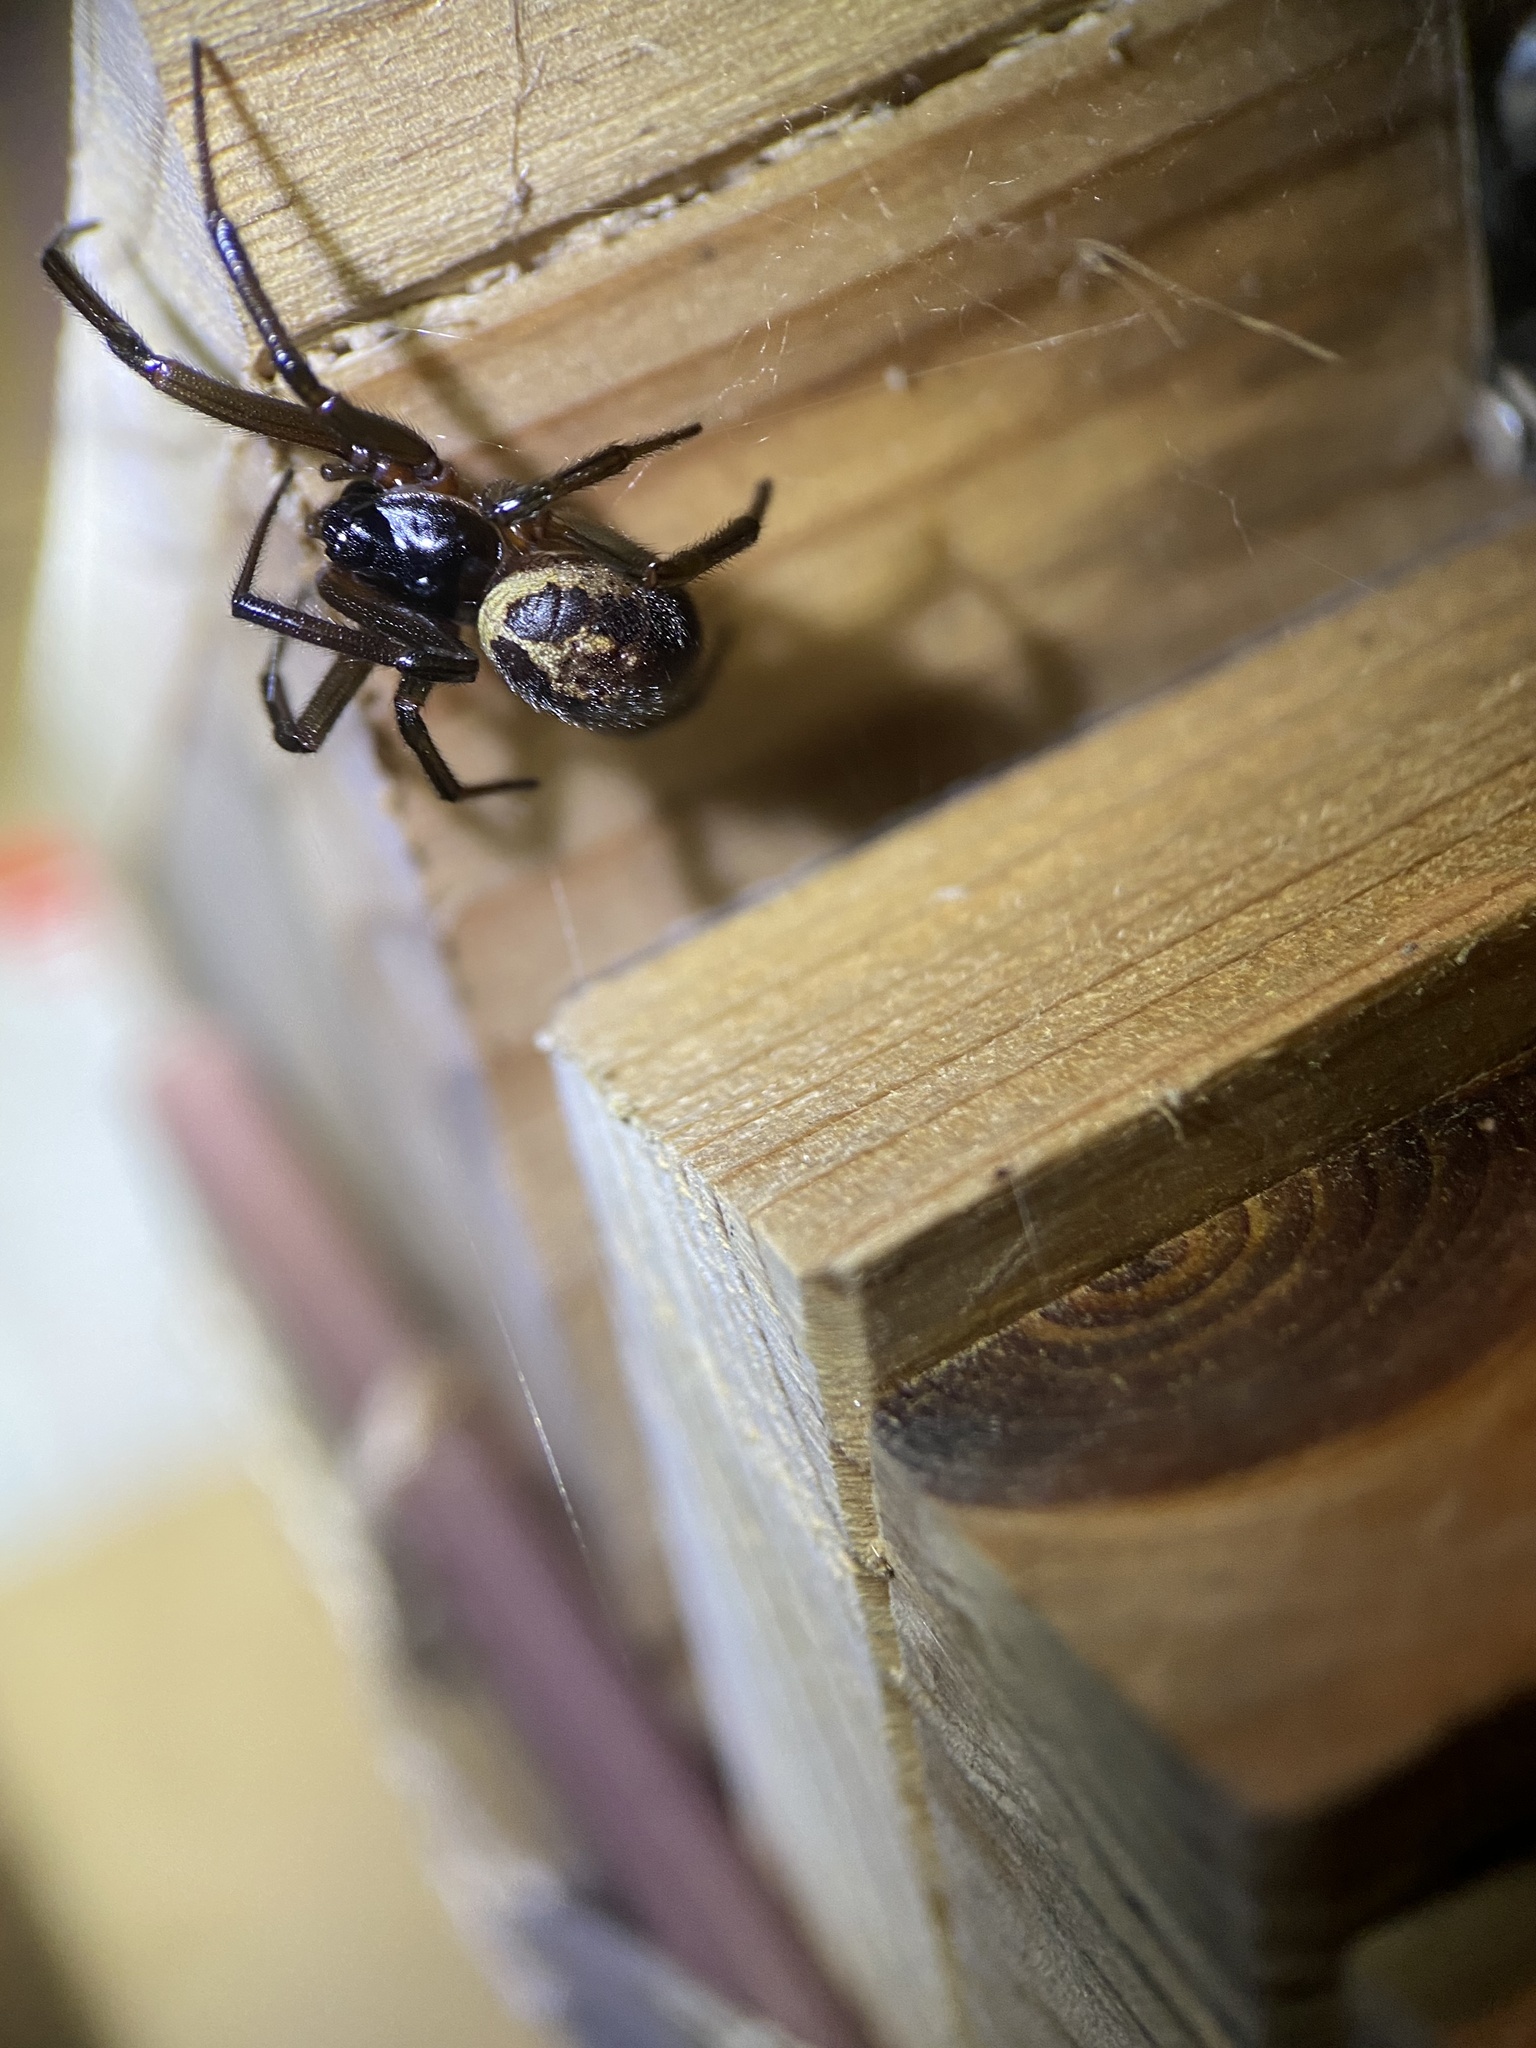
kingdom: Animalia
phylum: Arthropoda
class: Arachnida
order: Araneae
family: Theridiidae
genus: Steatoda
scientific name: Steatoda nobilis
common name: Cobweb weaver
